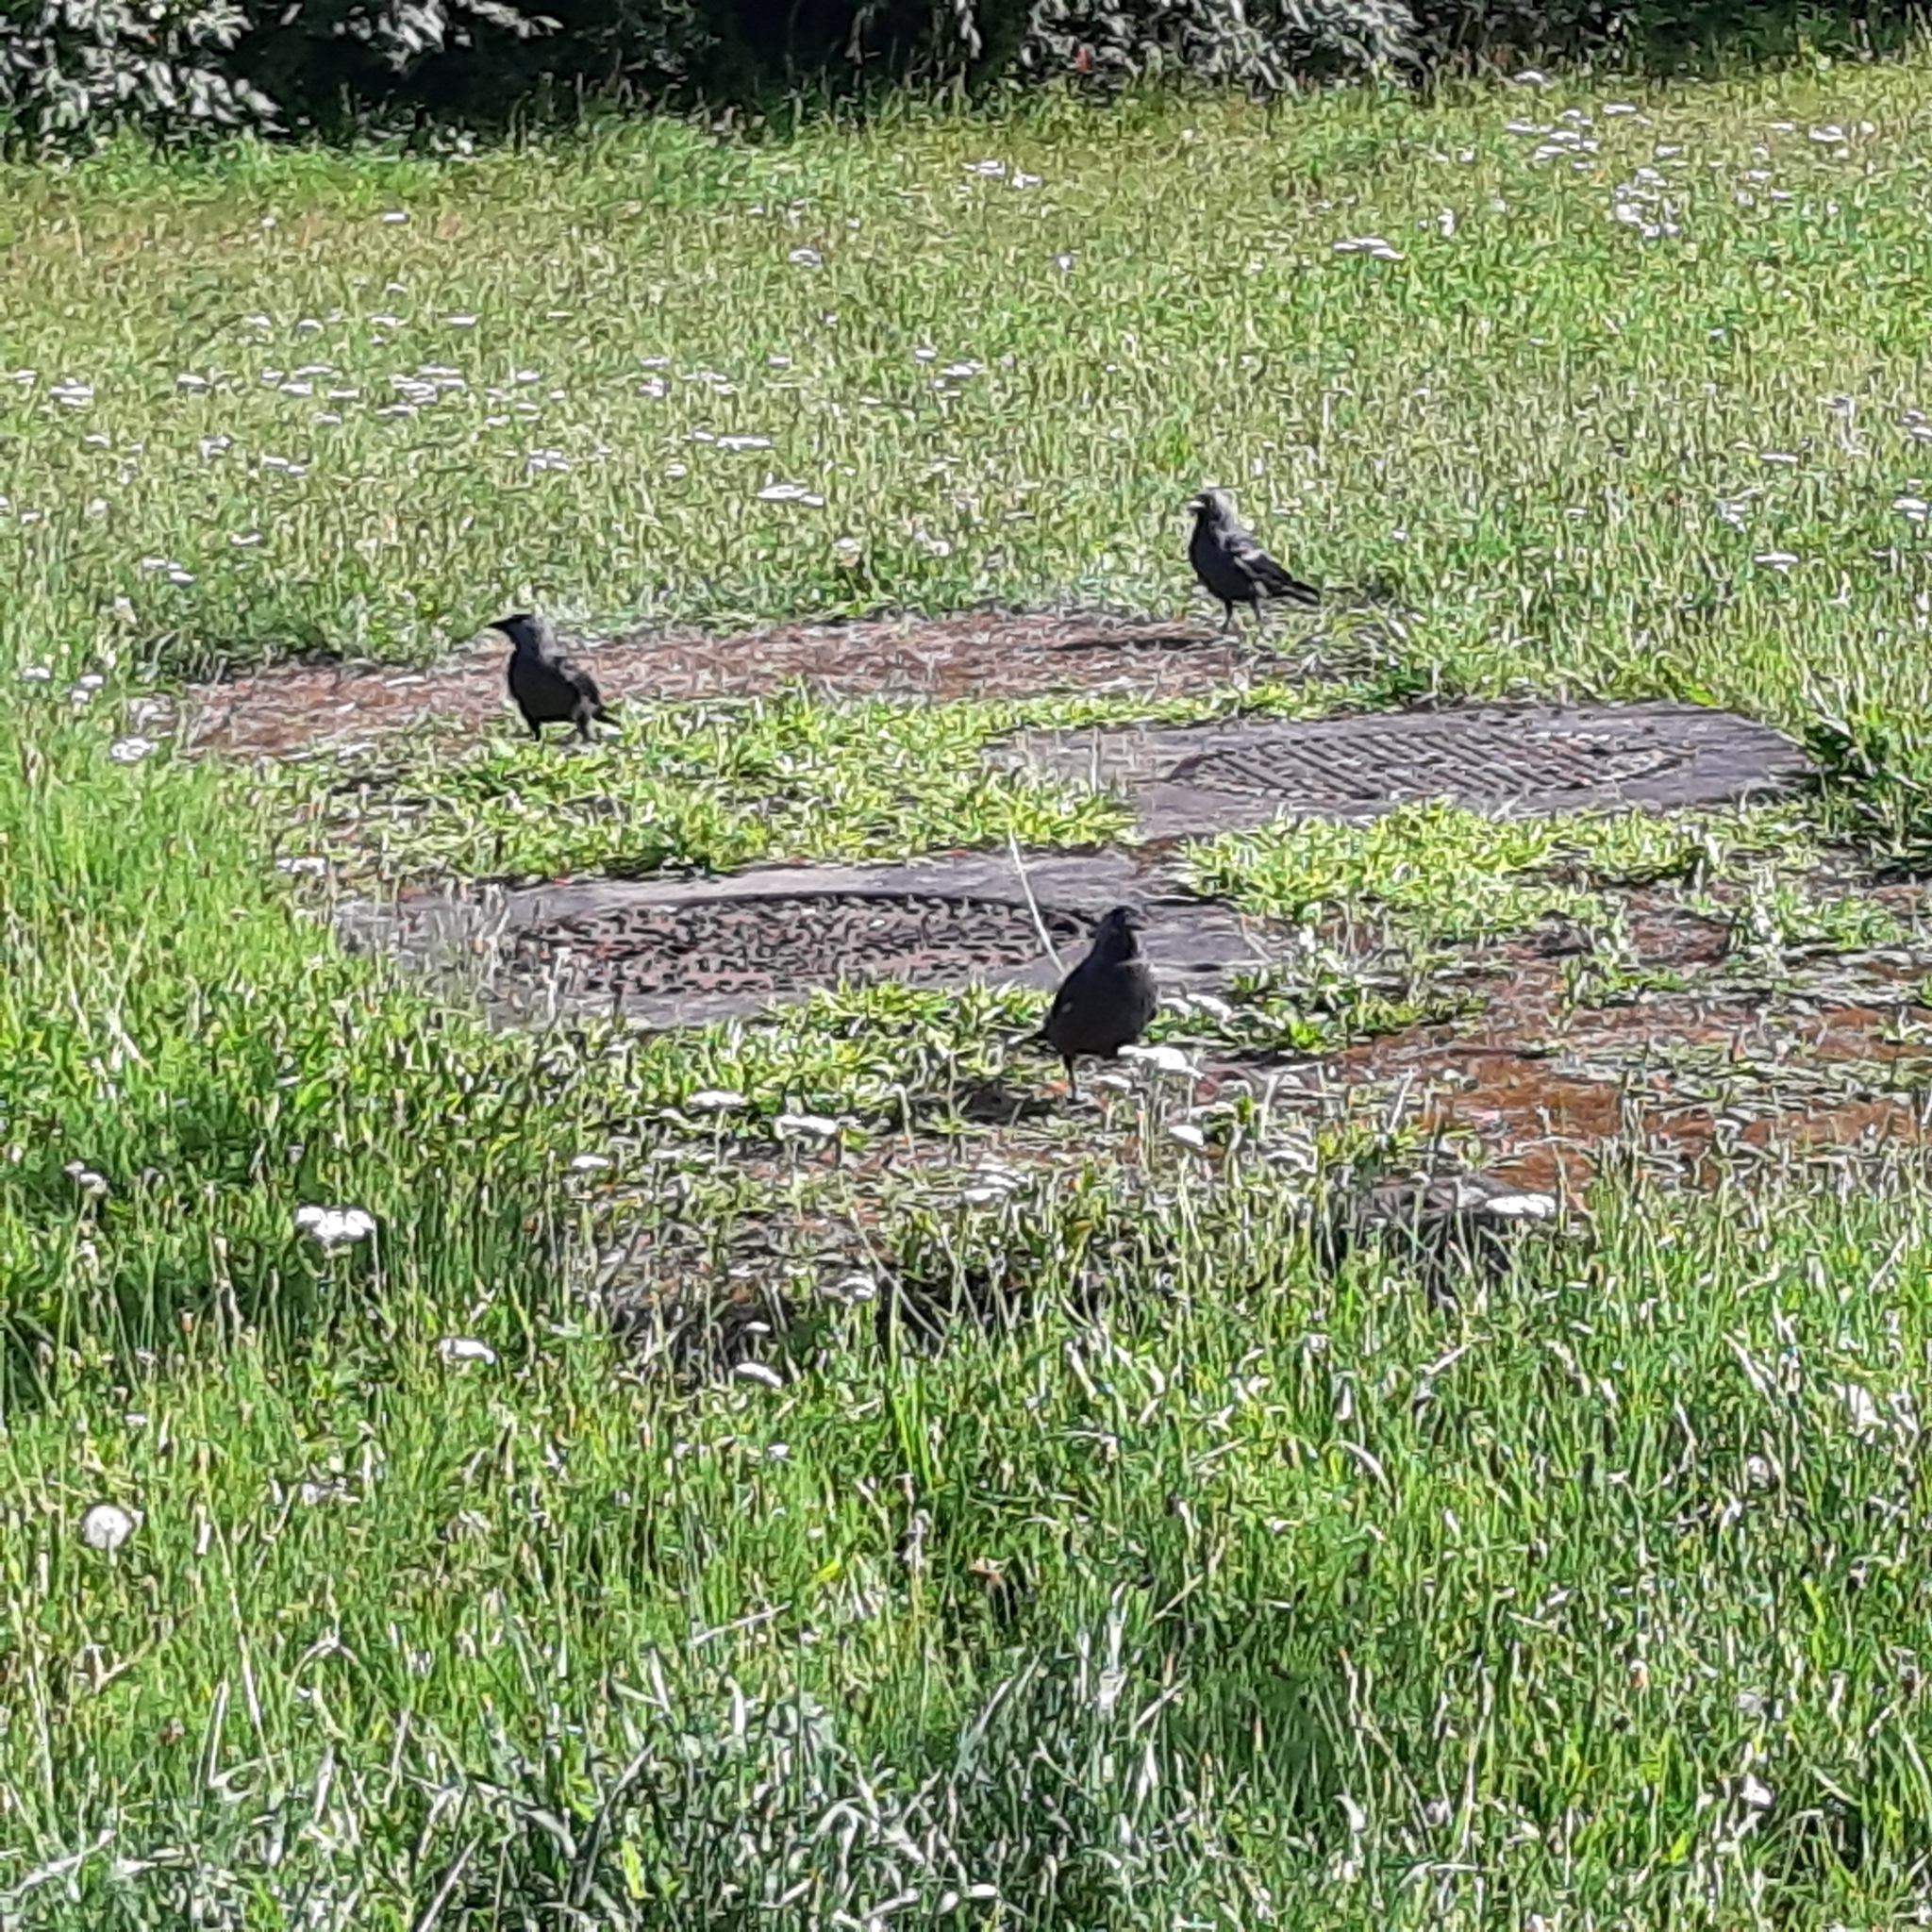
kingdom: Animalia
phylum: Chordata
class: Aves
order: Passeriformes
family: Corvidae
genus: Coloeus
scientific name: Coloeus monedula
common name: Western jackdaw
